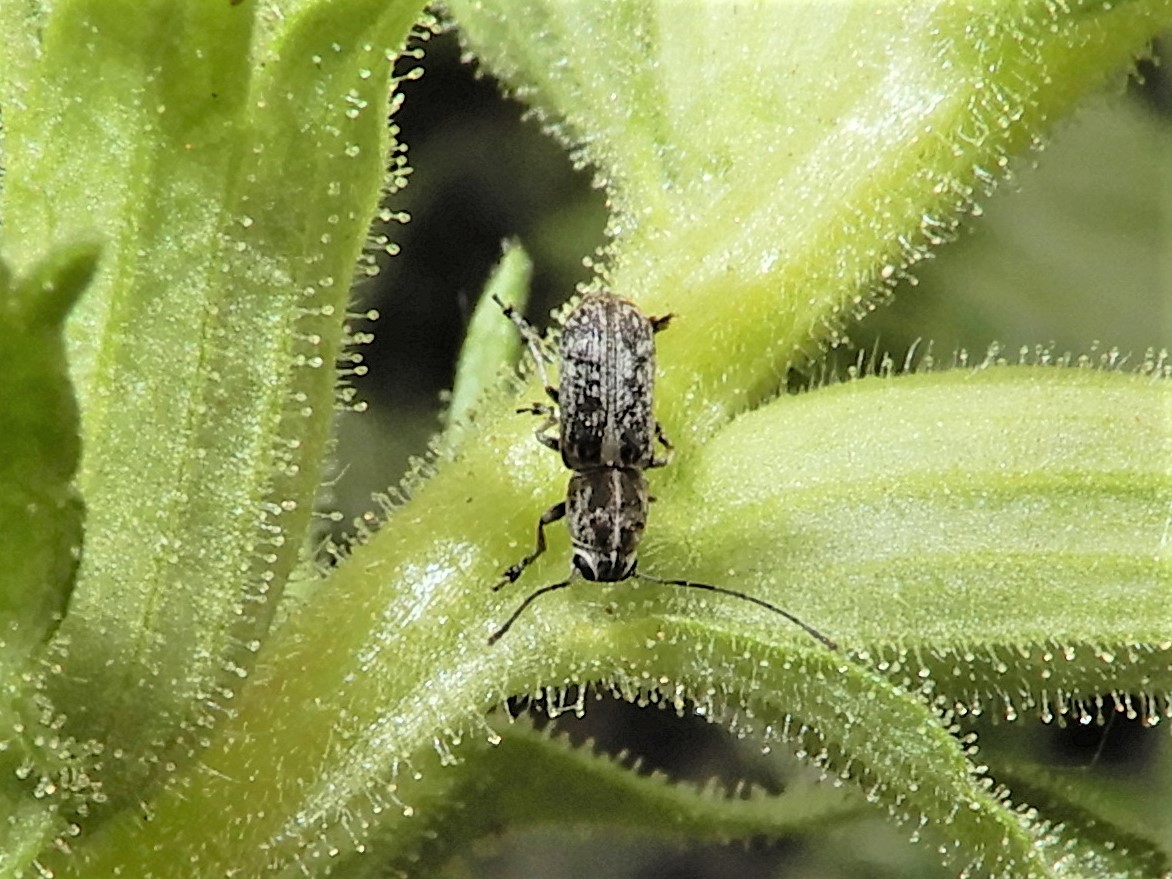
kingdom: Animalia
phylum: Arthropoda
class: Insecta
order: Coleoptera
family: Anthribidae
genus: Euciodes
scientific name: Euciodes suturalis
